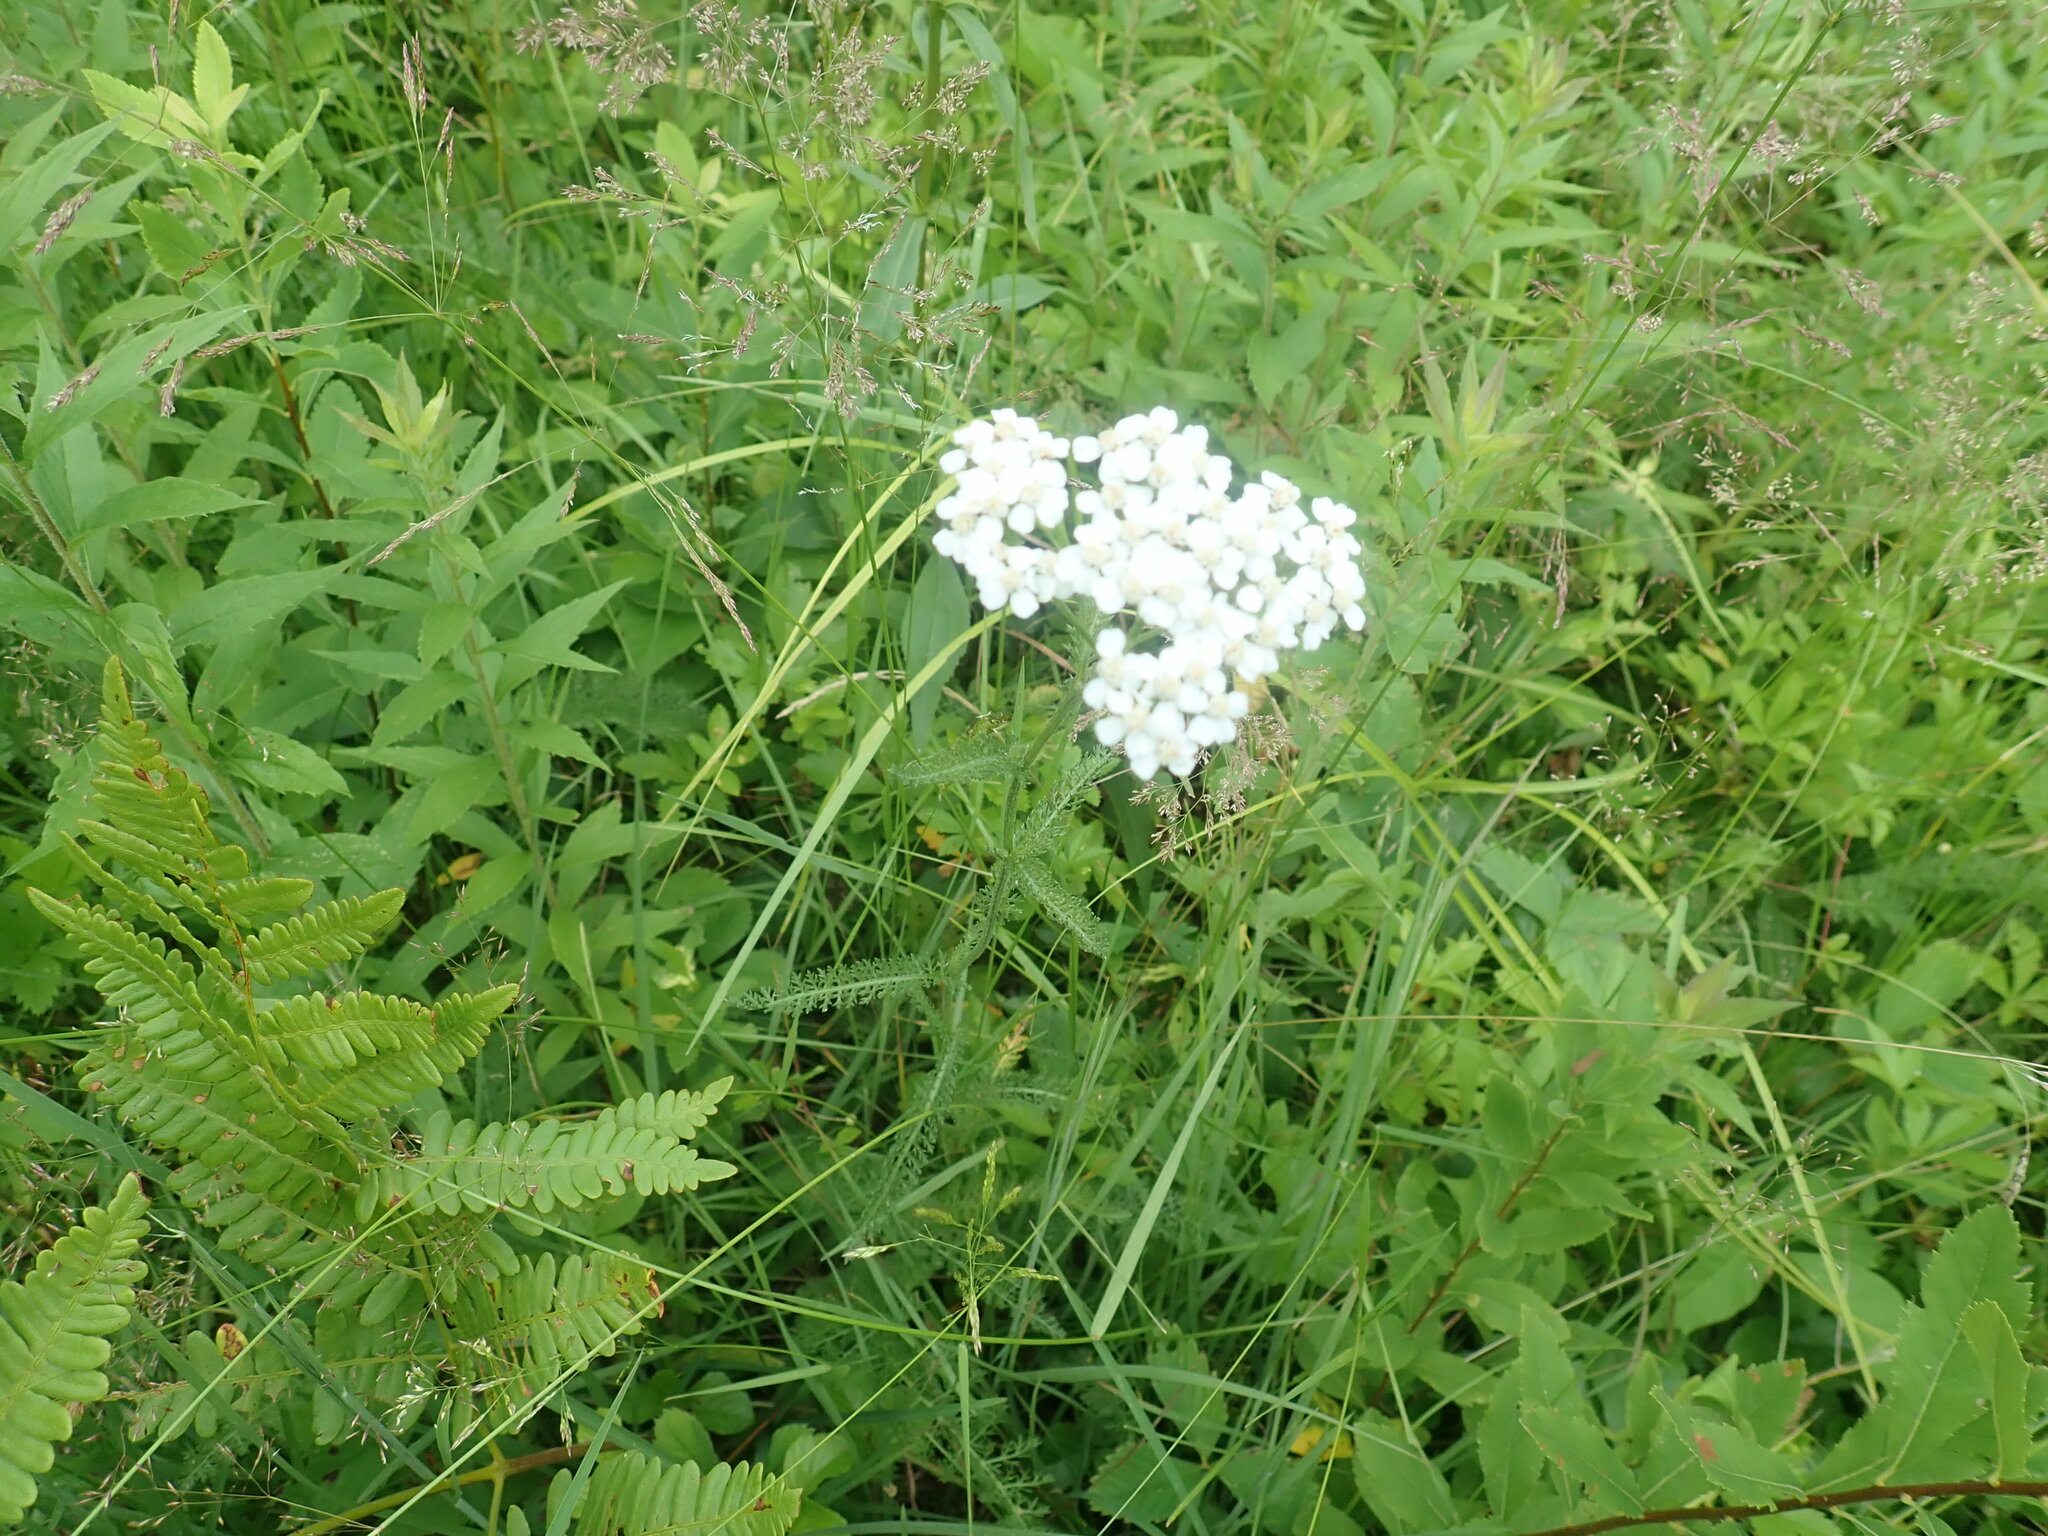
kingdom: Plantae
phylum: Tracheophyta
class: Magnoliopsida
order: Asterales
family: Asteraceae
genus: Achillea
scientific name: Achillea millefolium
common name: Yarrow
